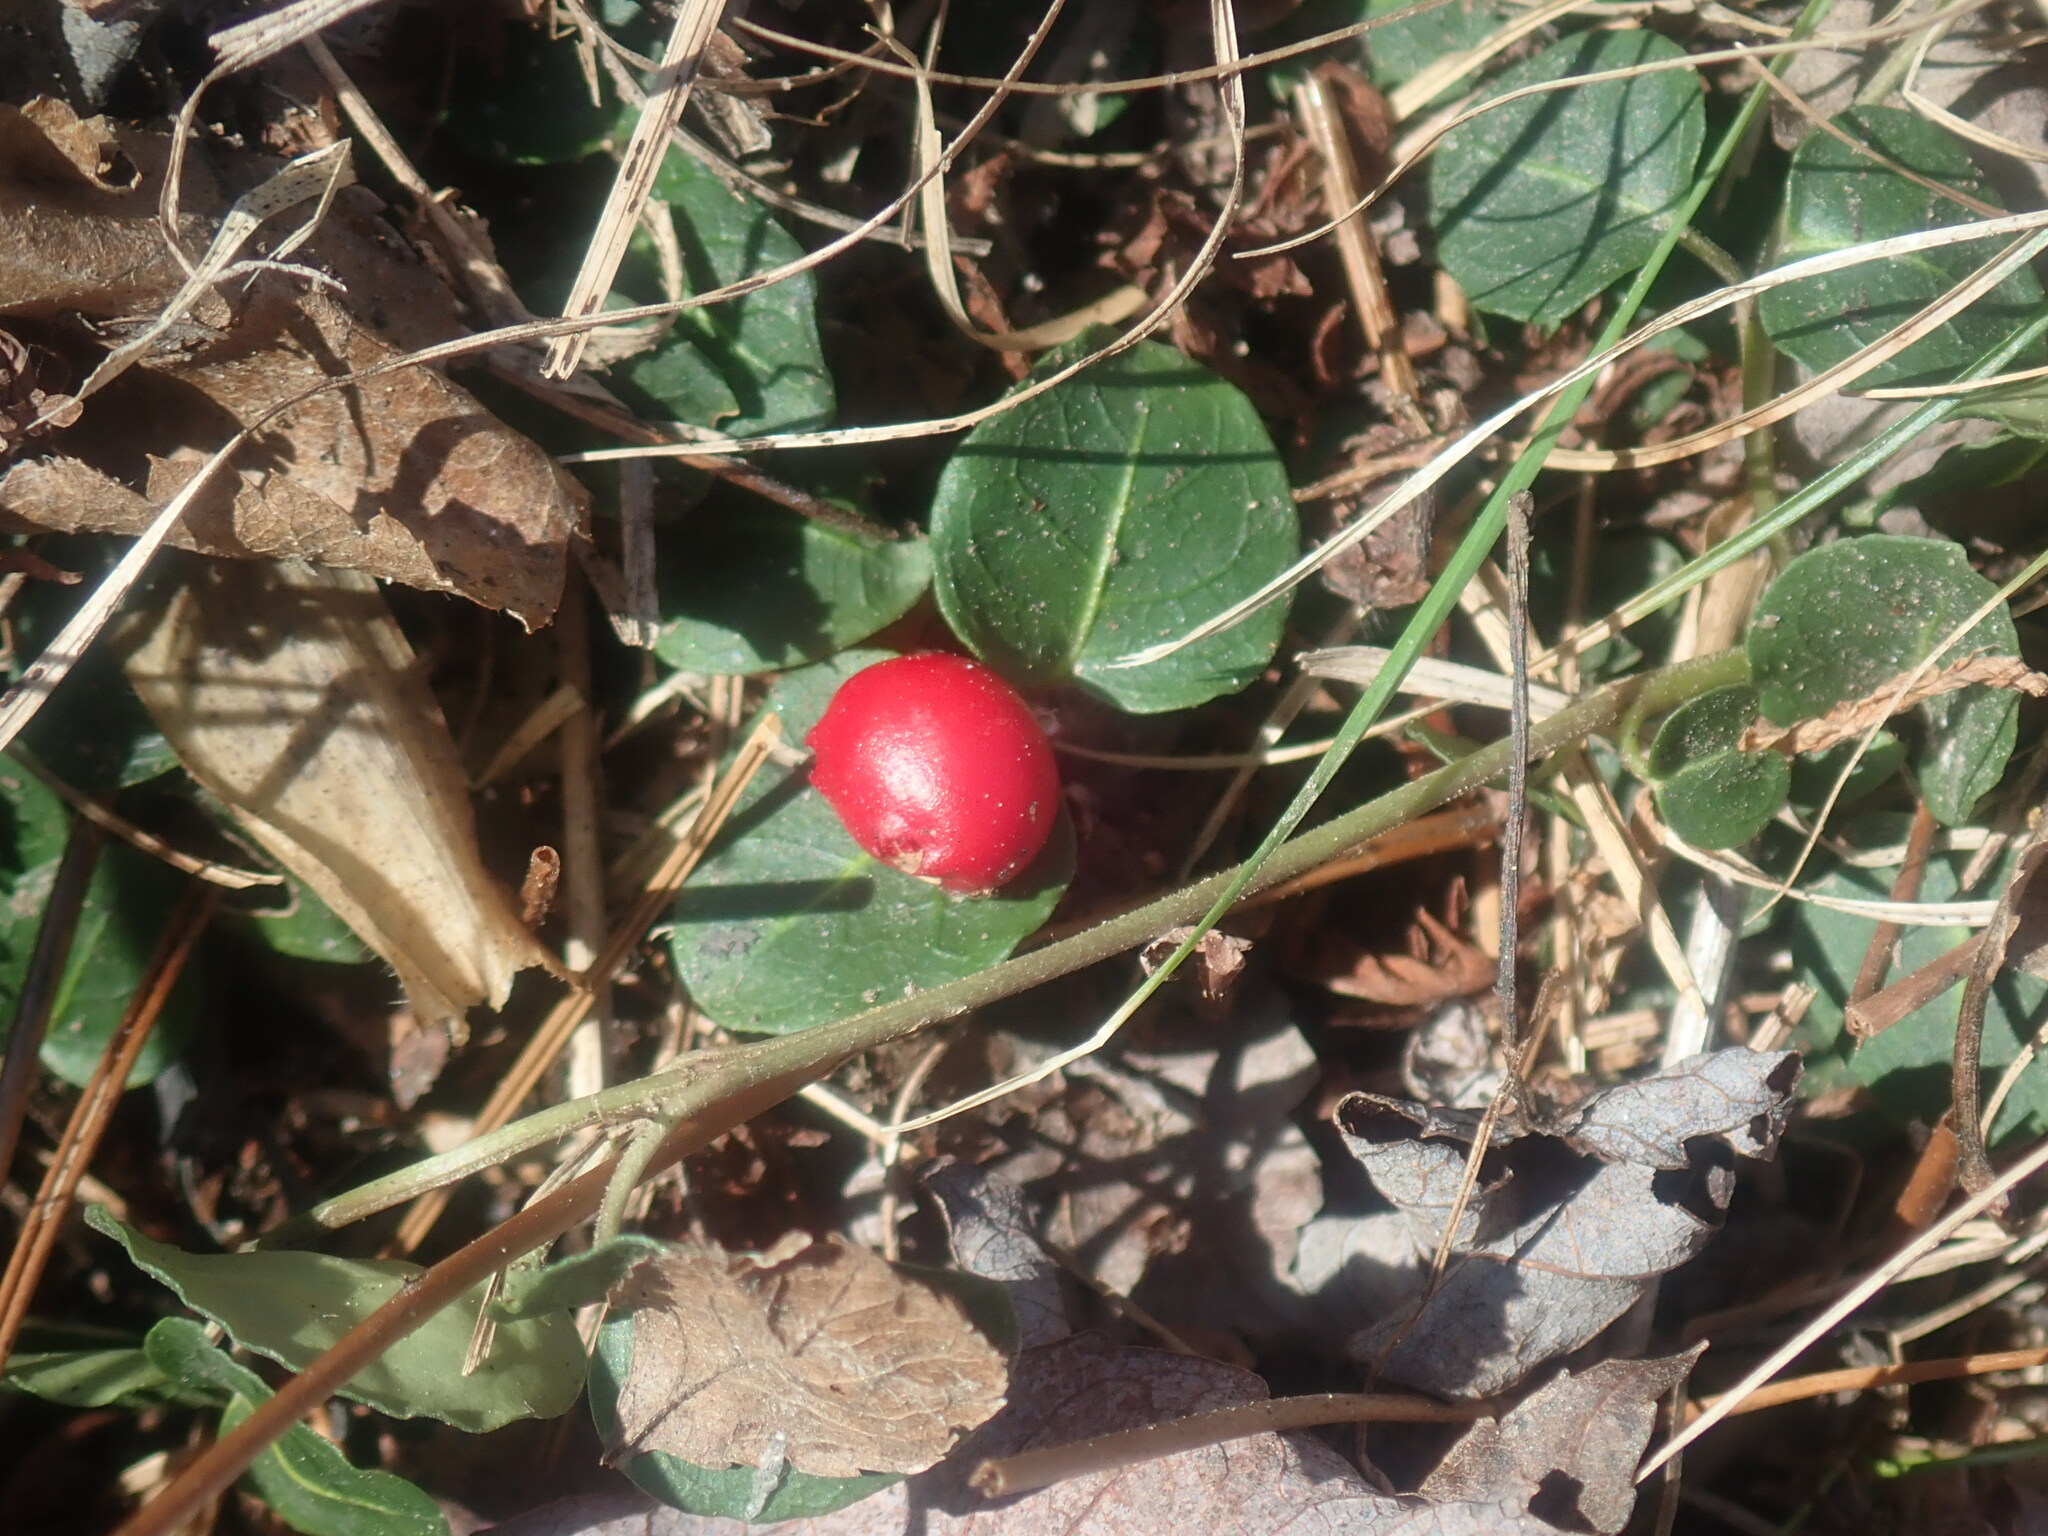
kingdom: Plantae
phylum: Tracheophyta
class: Magnoliopsida
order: Gentianales
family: Rubiaceae
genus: Mitchella
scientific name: Mitchella repens
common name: Partridge-berry
